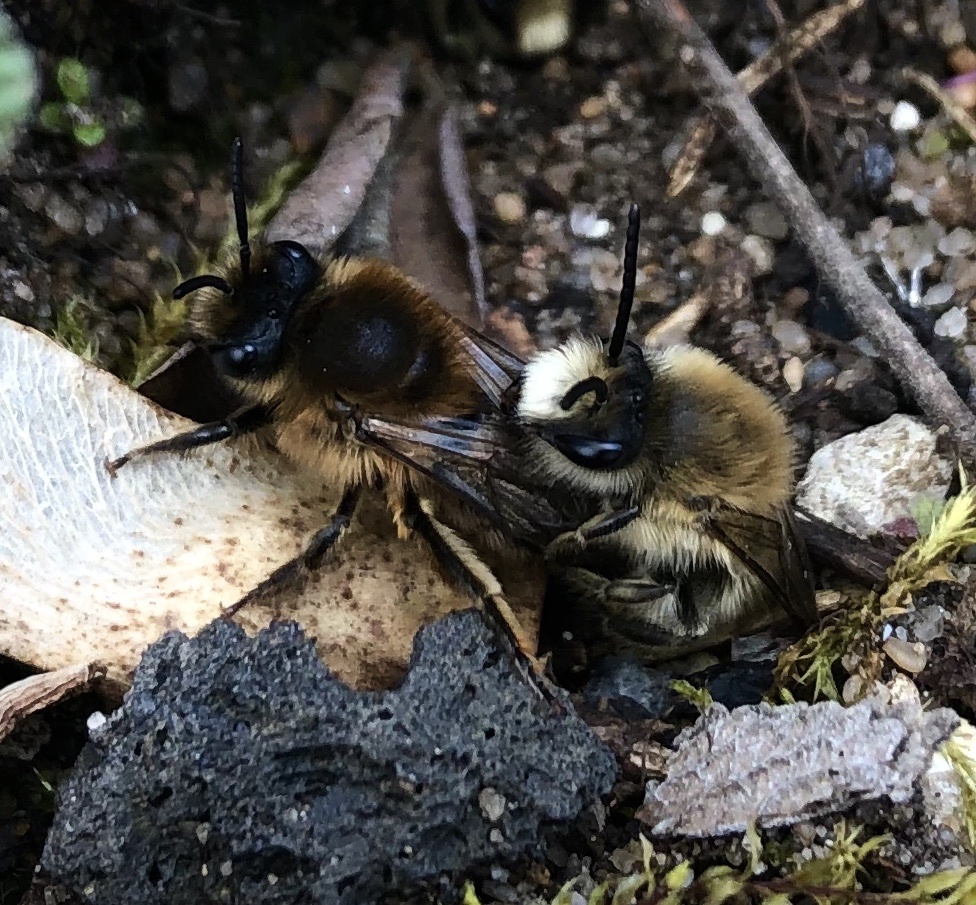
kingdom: Animalia
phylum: Arthropoda
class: Insecta
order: Hymenoptera
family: Colletidae
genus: Colletes
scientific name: Colletes cunicularius
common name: Early colletes
